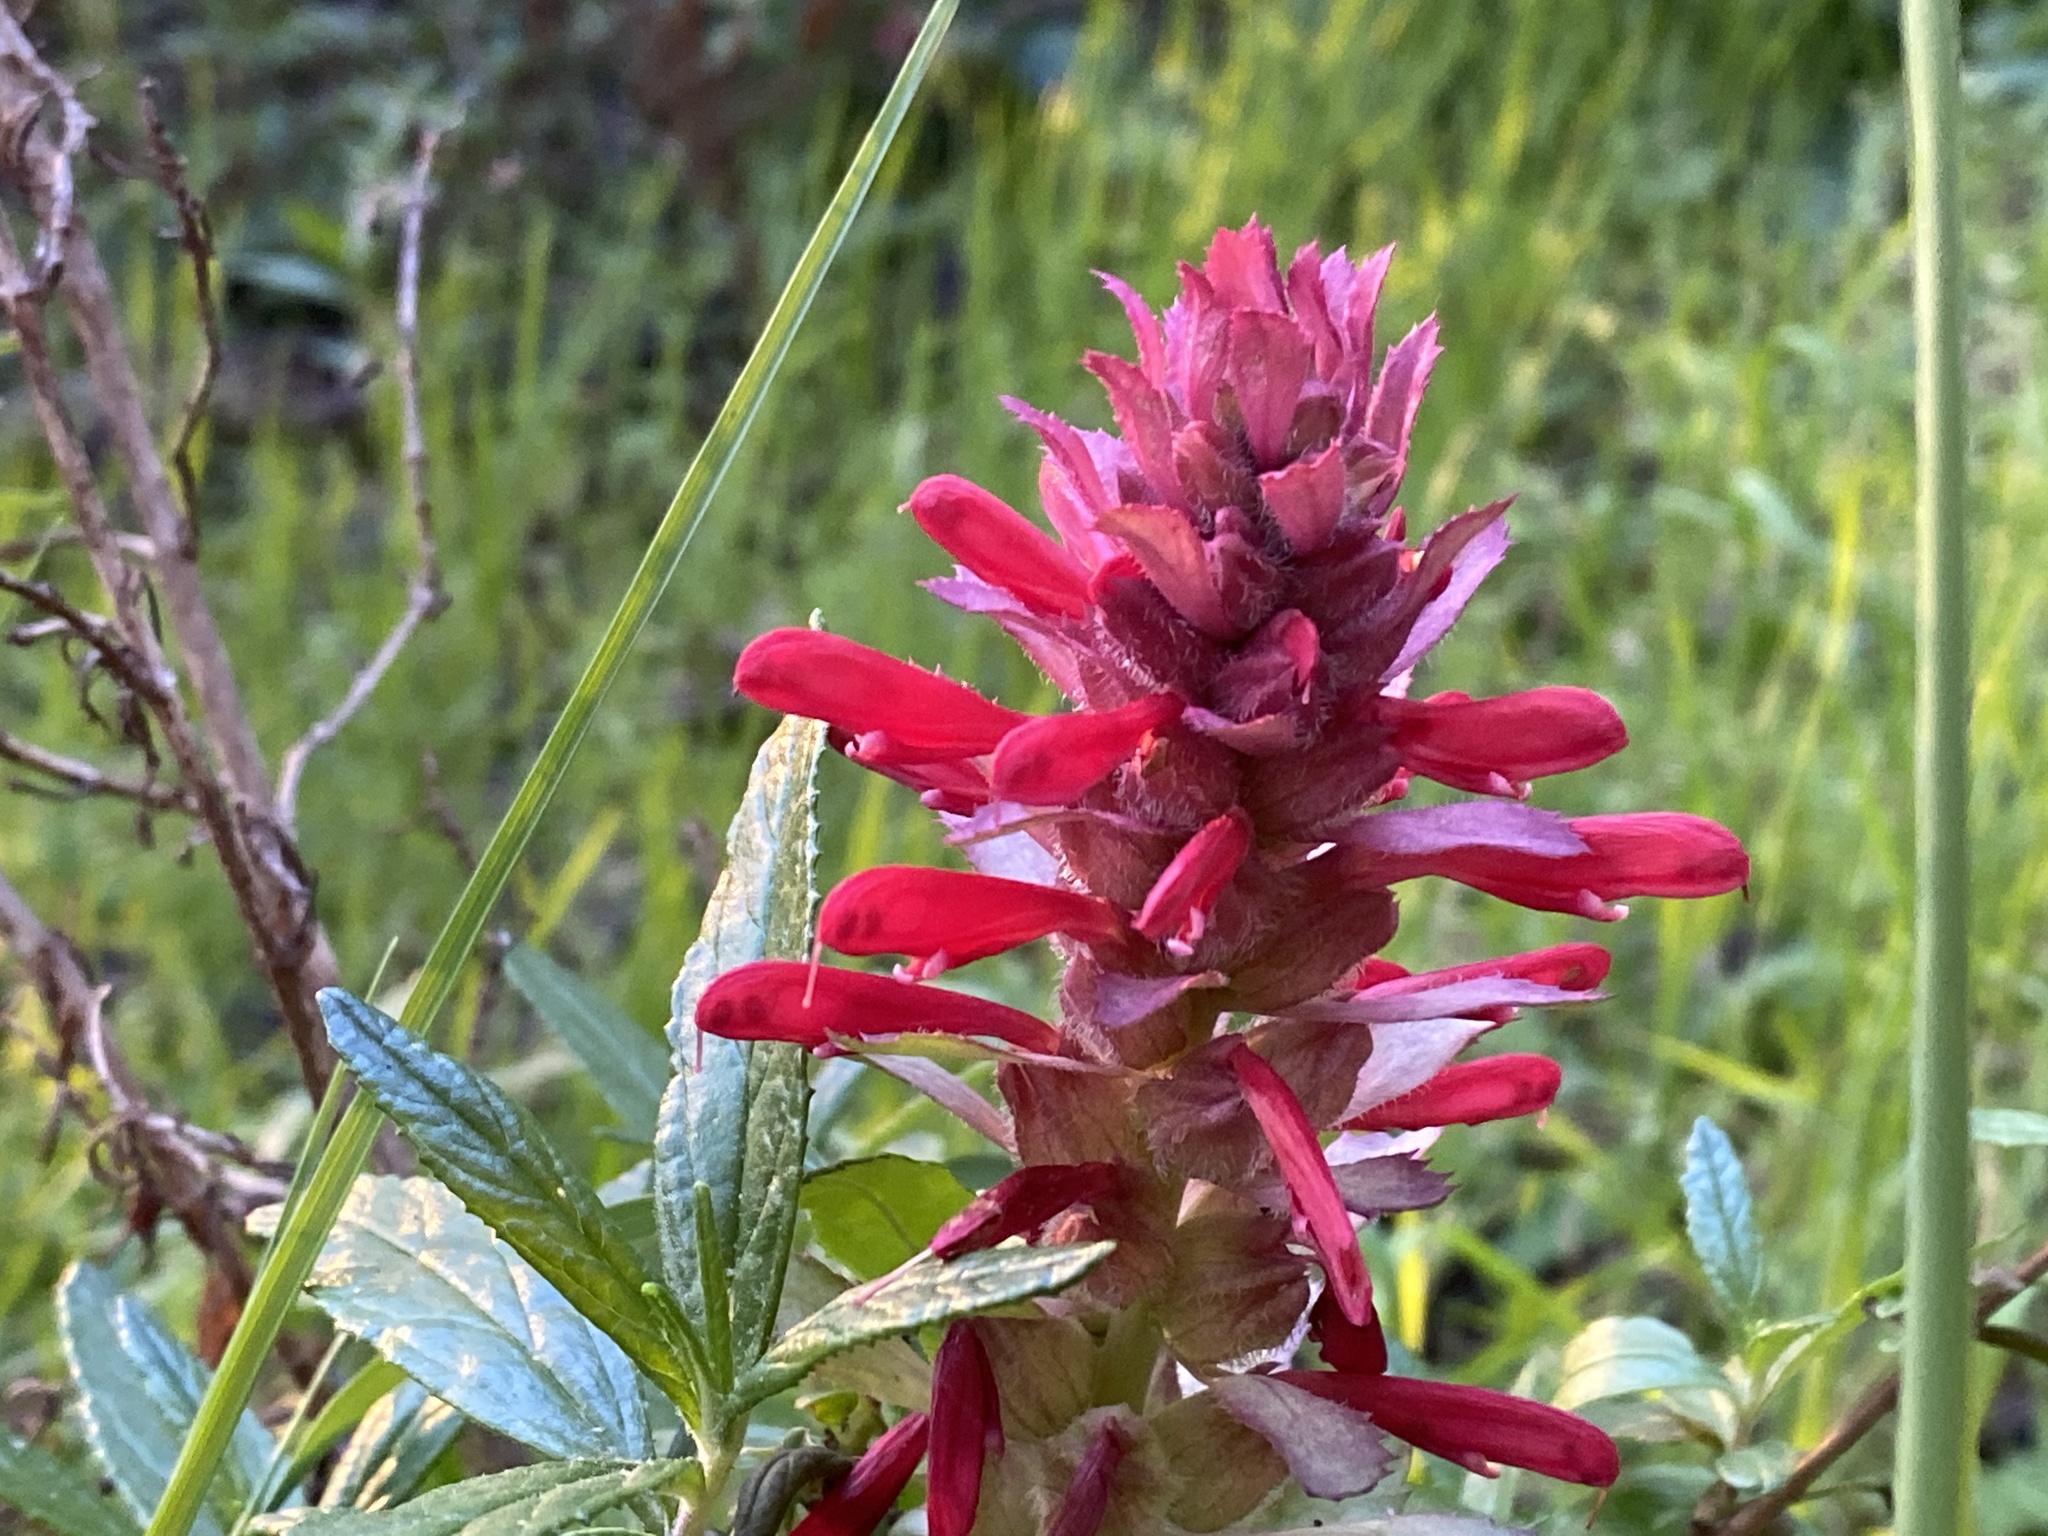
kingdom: Plantae
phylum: Tracheophyta
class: Magnoliopsida
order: Lamiales
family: Orobanchaceae
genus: Pedicularis
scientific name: Pedicularis densiflora
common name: Indian warrior
